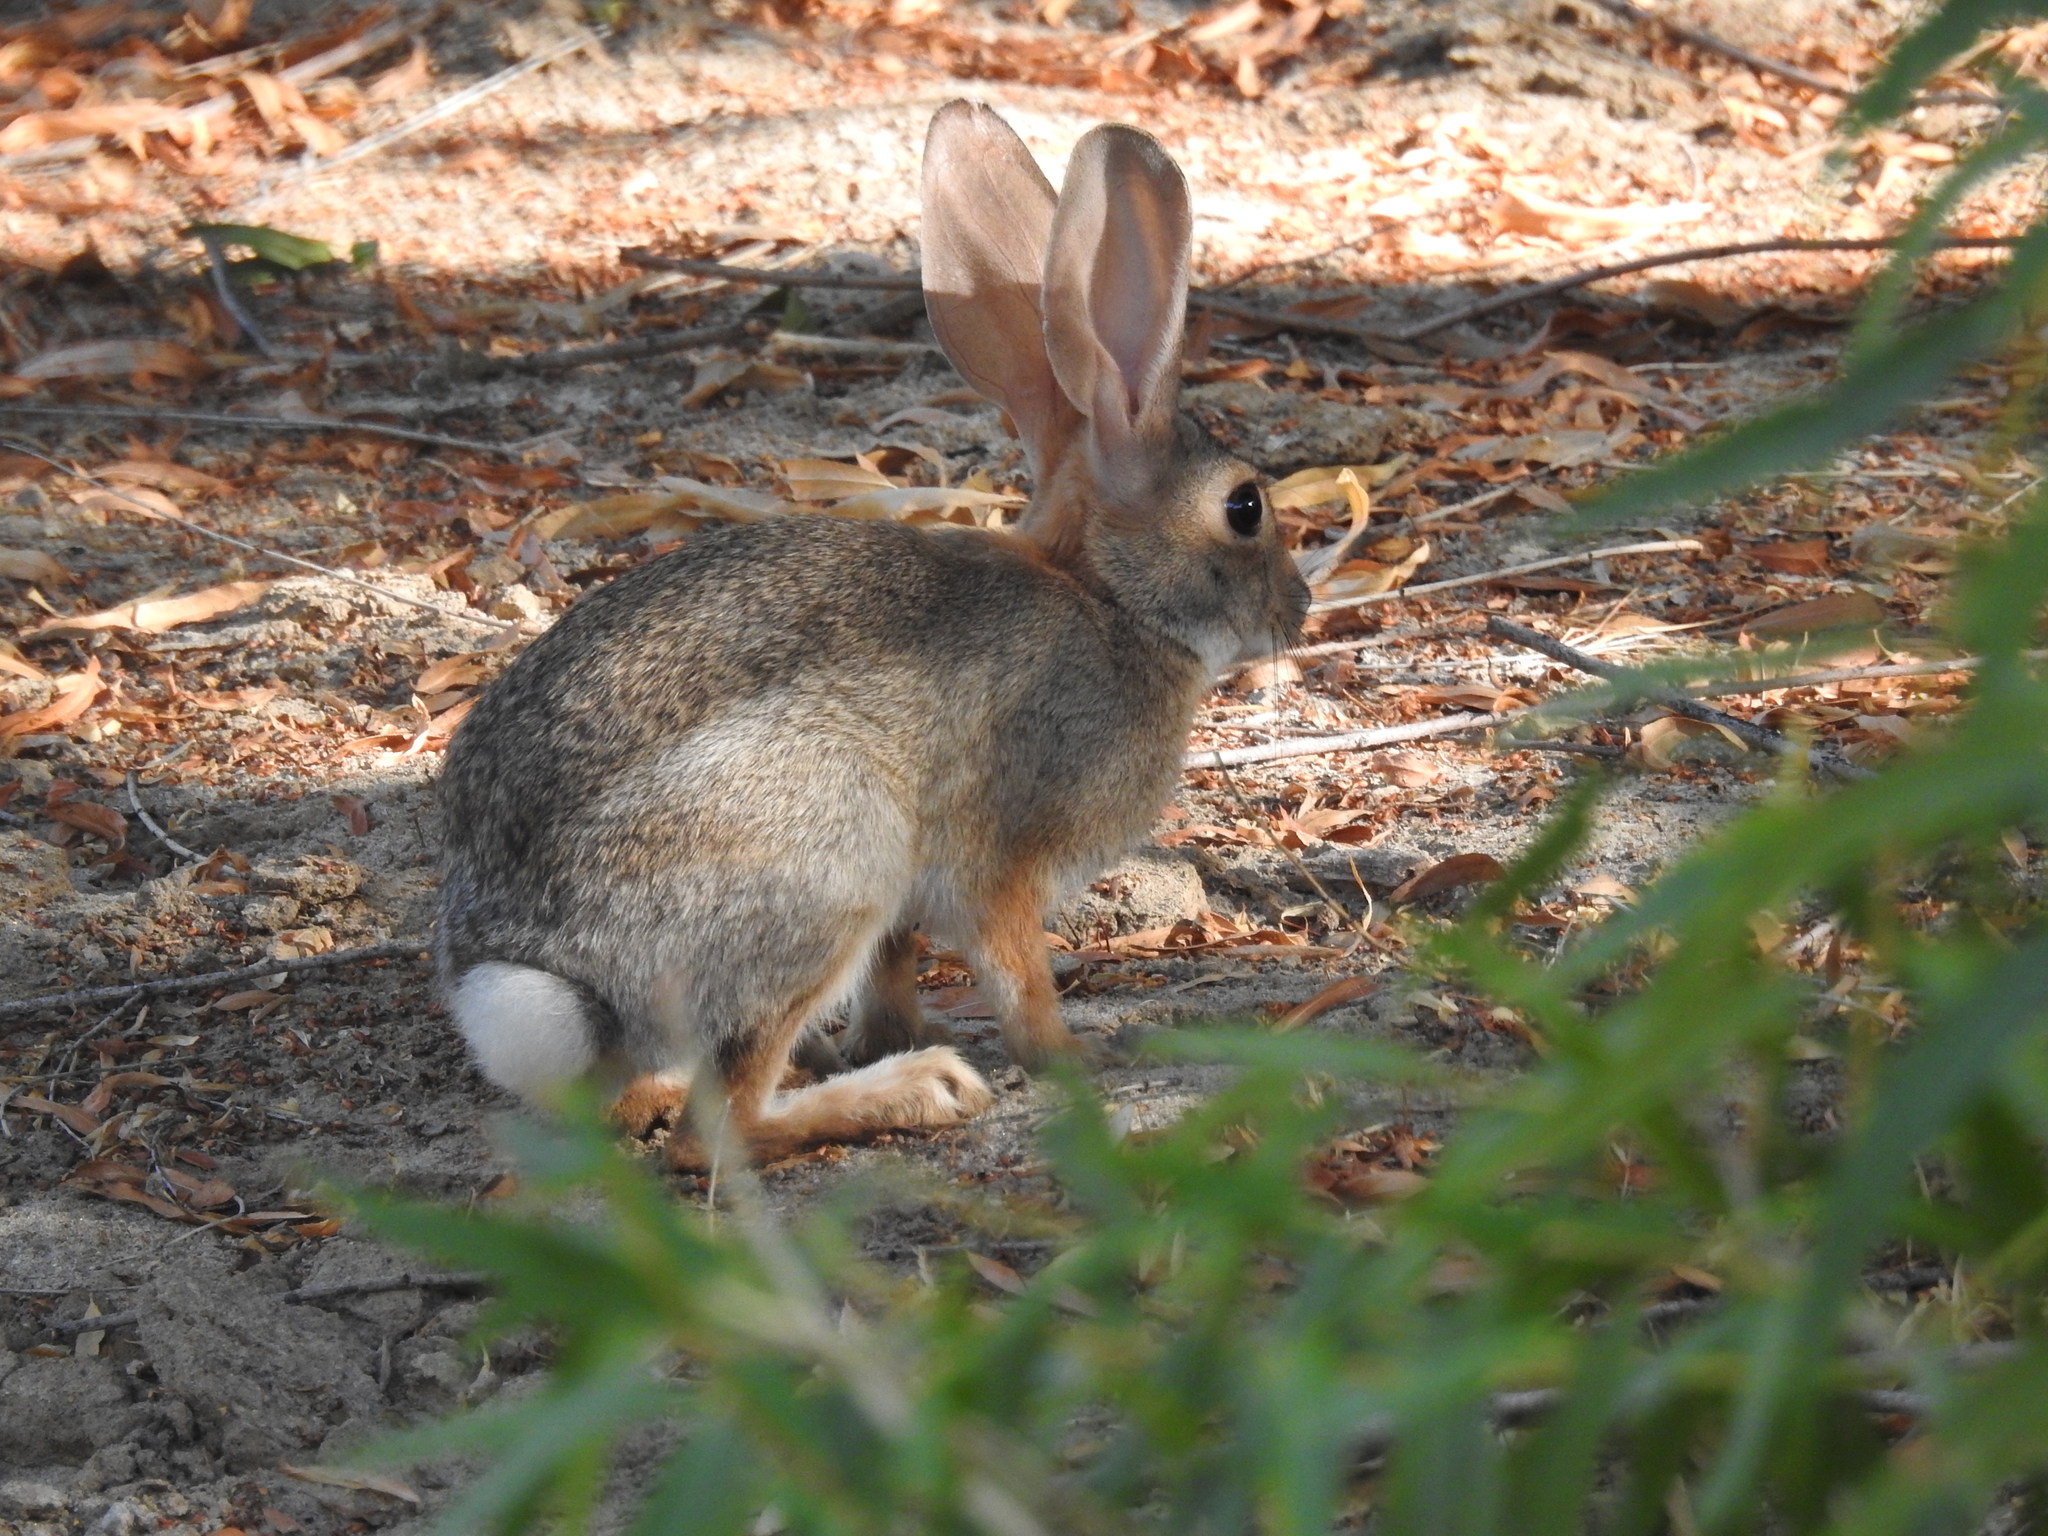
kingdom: Animalia
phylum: Chordata
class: Mammalia
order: Lagomorpha
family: Leporidae
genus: Sylvilagus
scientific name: Sylvilagus audubonii
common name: Desert cottontail
